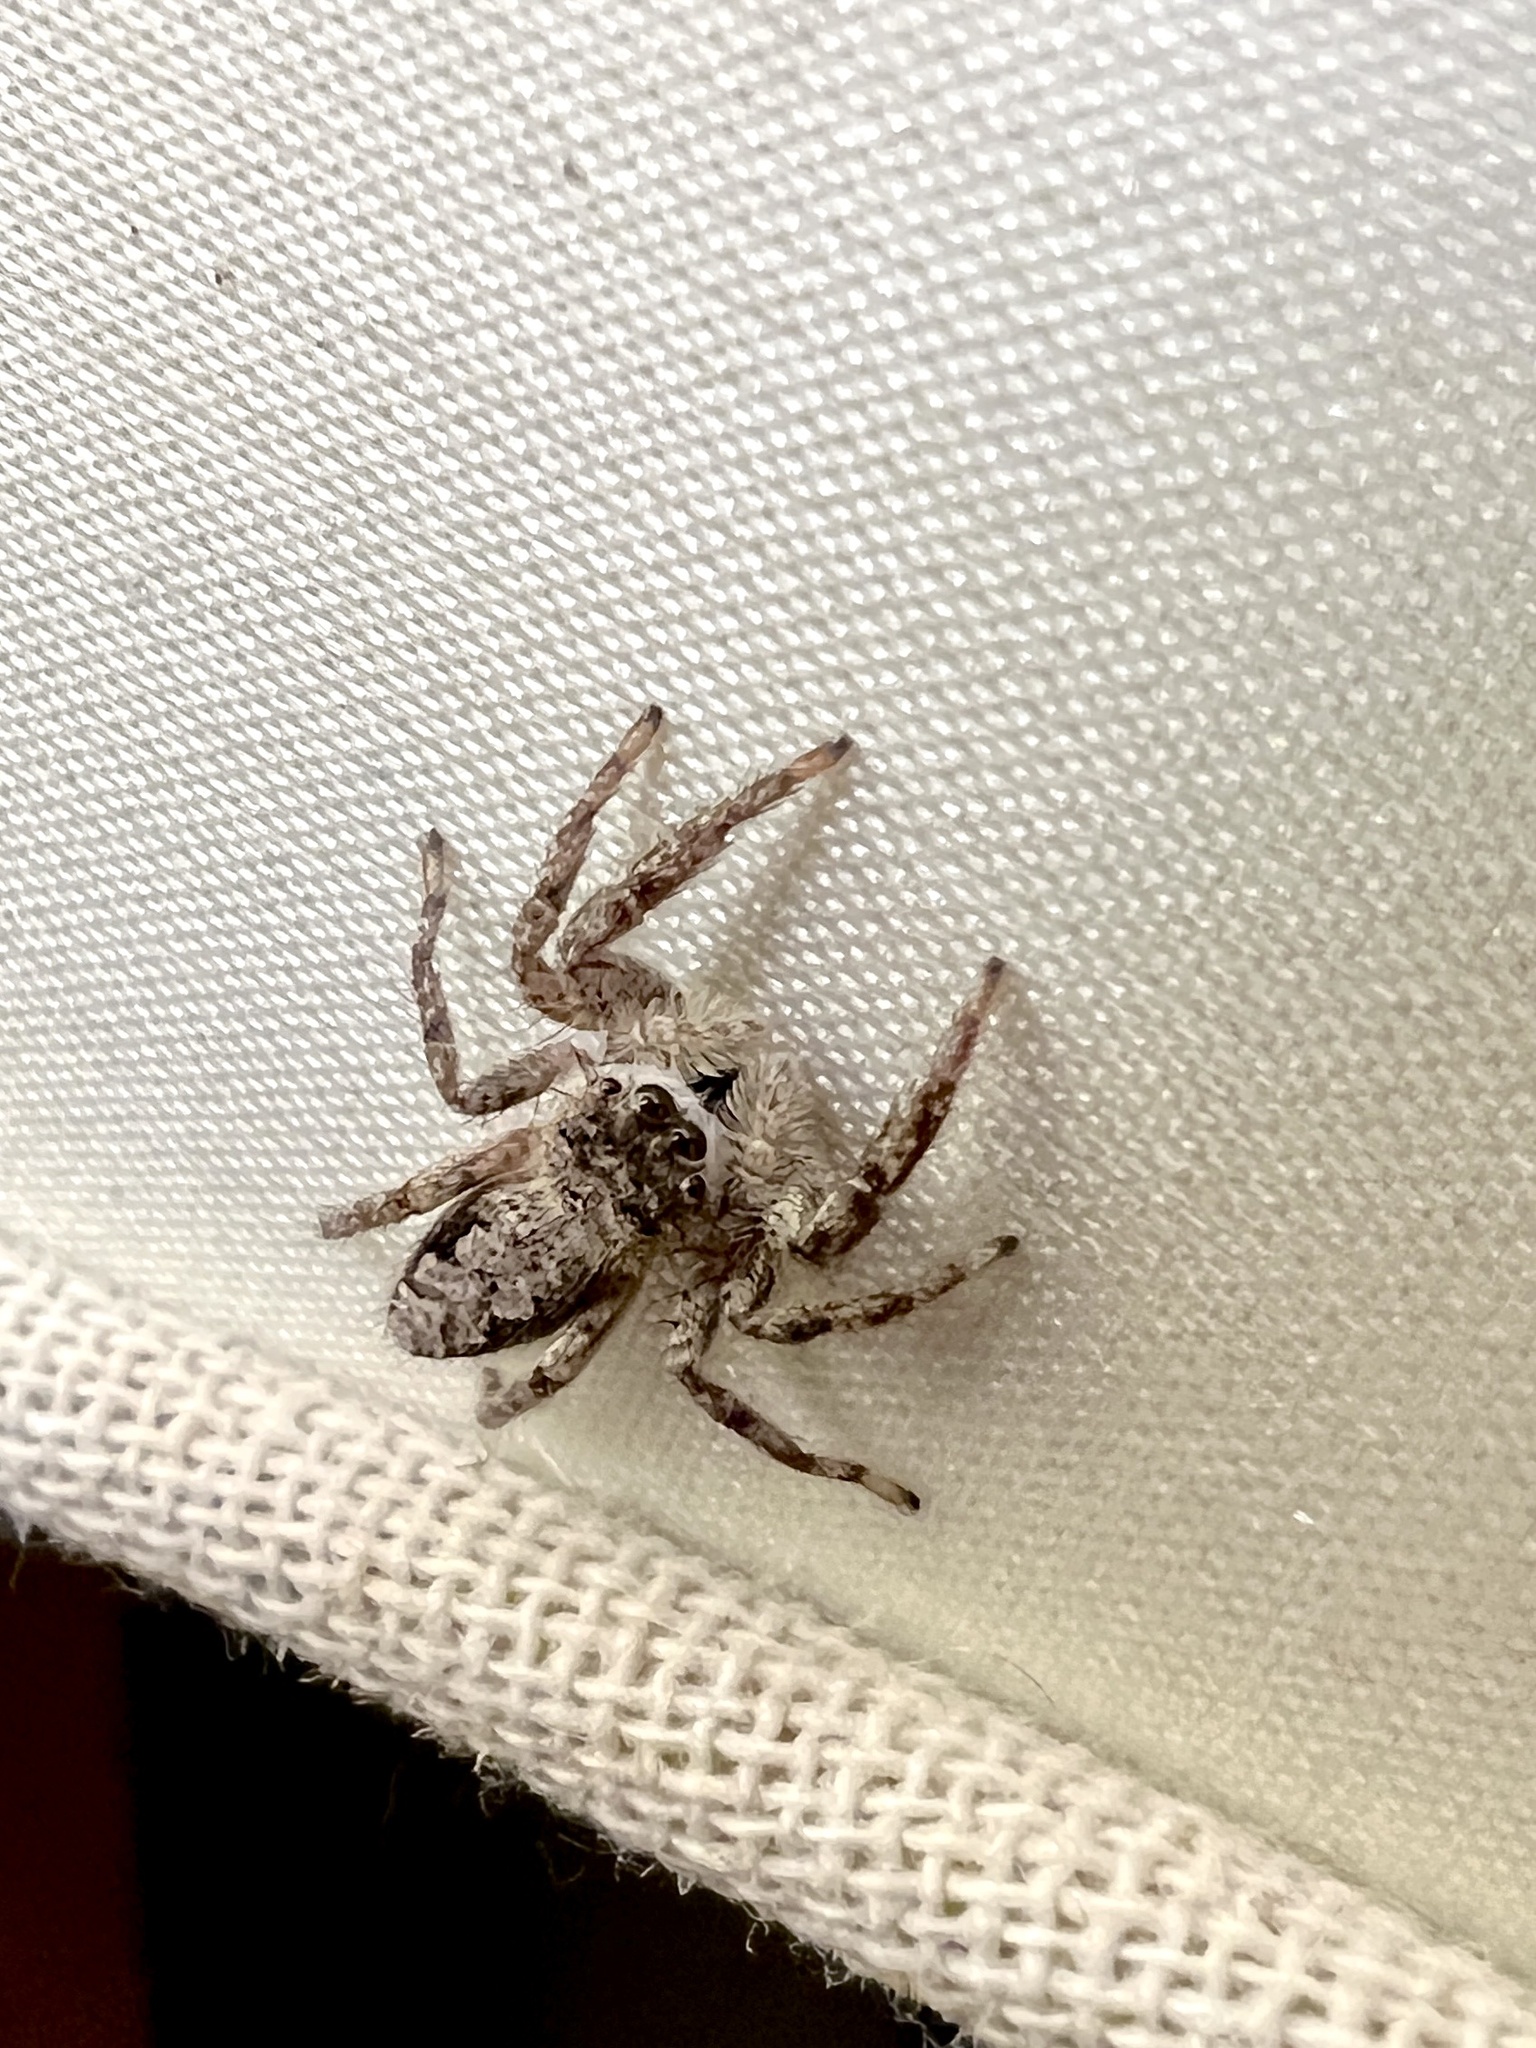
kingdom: Animalia
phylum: Arthropoda
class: Arachnida
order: Araneae
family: Salticidae
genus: Platycryptus
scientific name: Platycryptus undatus
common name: Tan jumping spider
